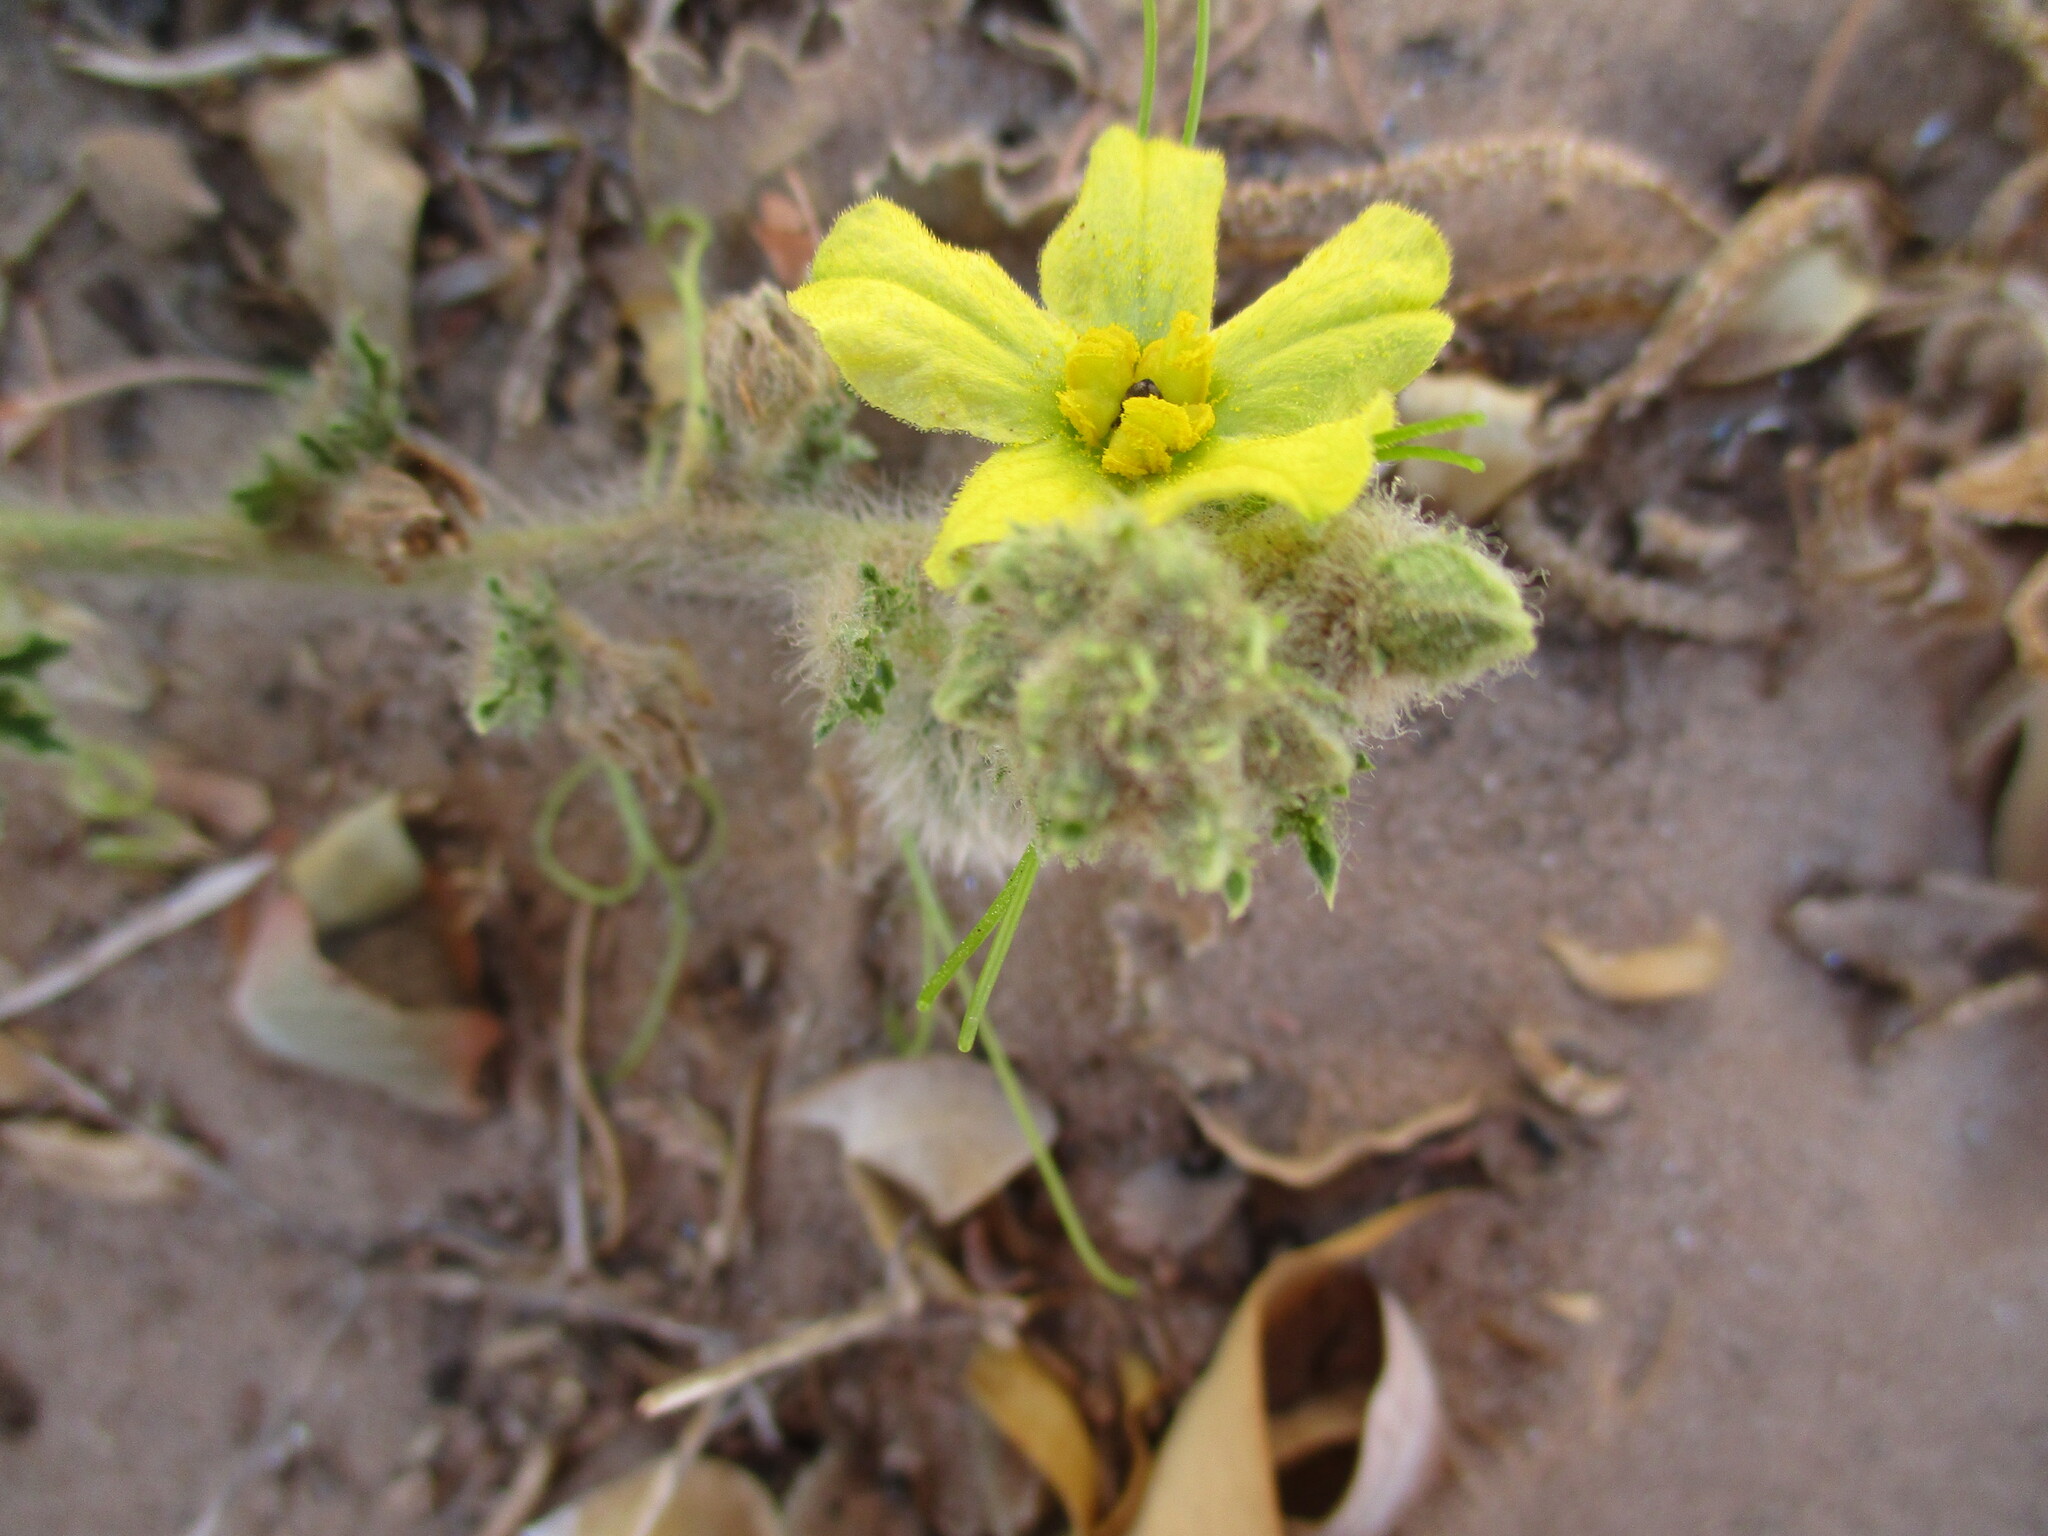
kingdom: Plantae
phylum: Tracheophyta
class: Magnoliopsida
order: Cucurbitales
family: Cucurbitaceae
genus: Citrullus
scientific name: Citrullus amarus
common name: Fodder-melon
